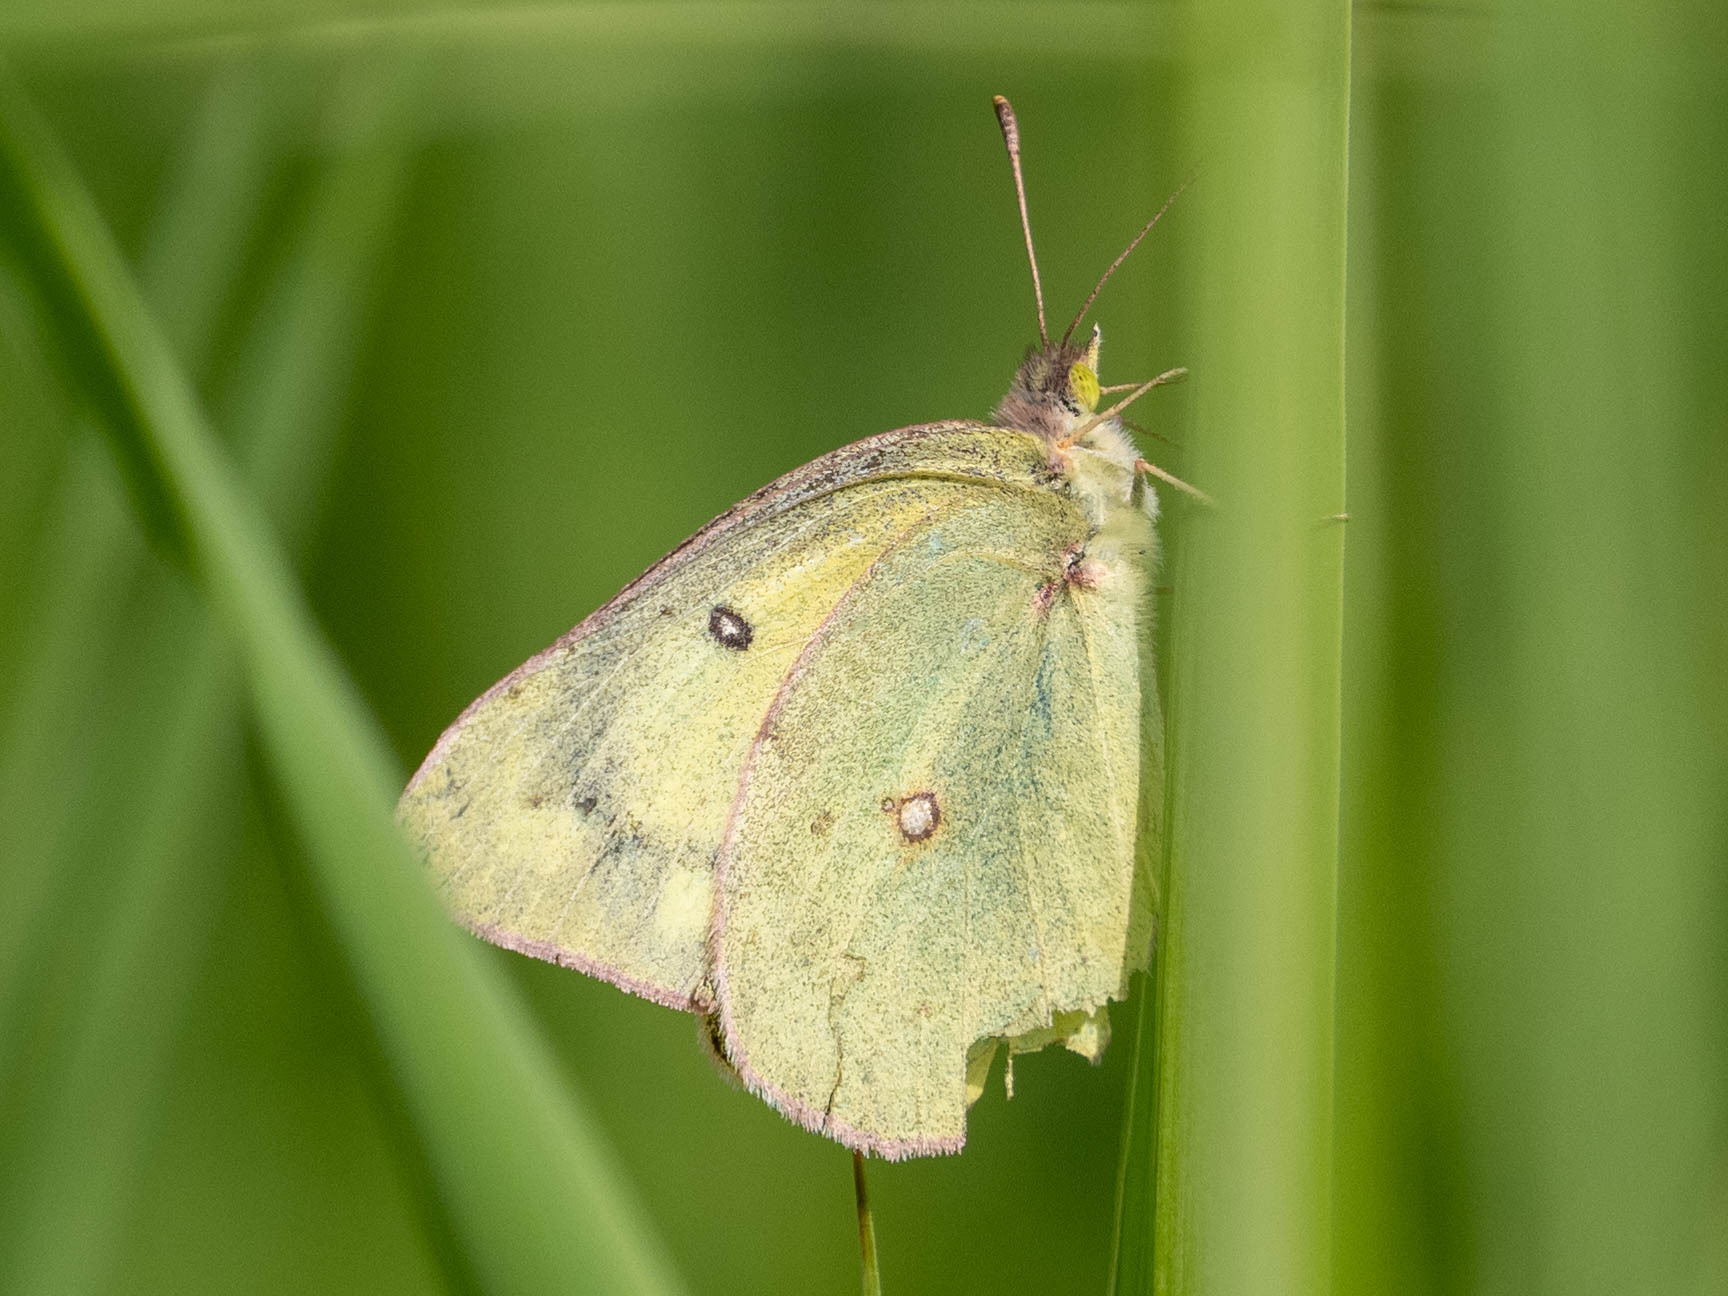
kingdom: Animalia
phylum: Arthropoda
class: Insecta
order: Lepidoptera
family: Pieridae
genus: Colias
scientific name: Colias philodice
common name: Clouded sulphur
